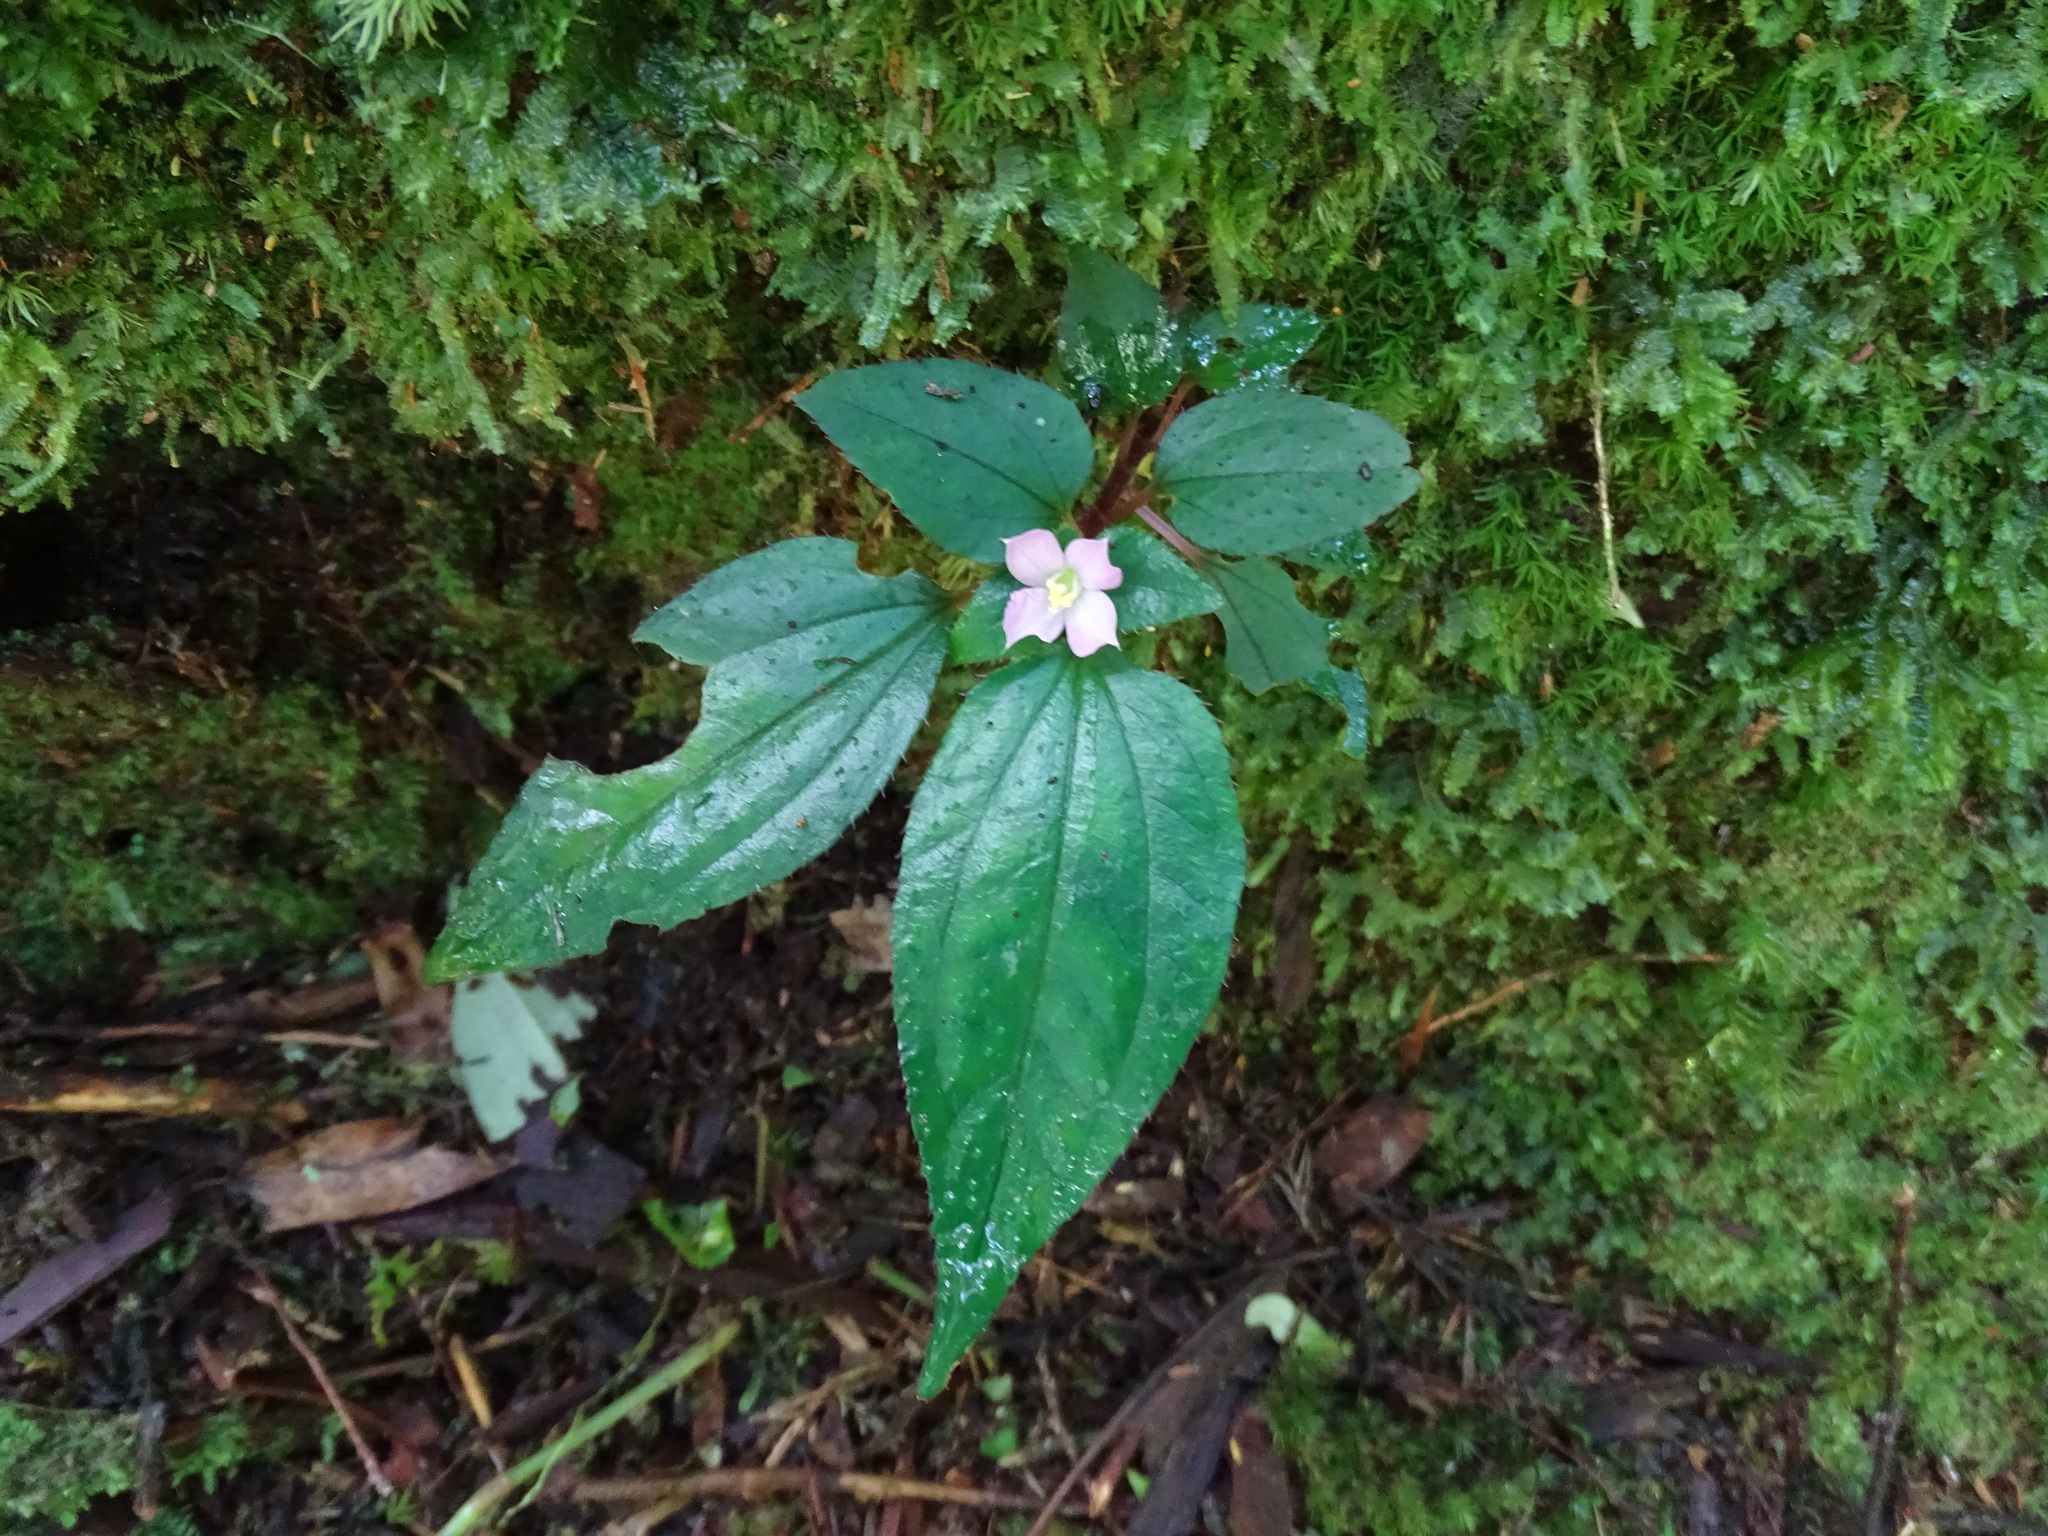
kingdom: Plantae
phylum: Tracheophyta
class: Magnoliopsida
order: Myrtales
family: Melastomataceae
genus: Sarcopyramis
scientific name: Sarcopyramis napalensis
